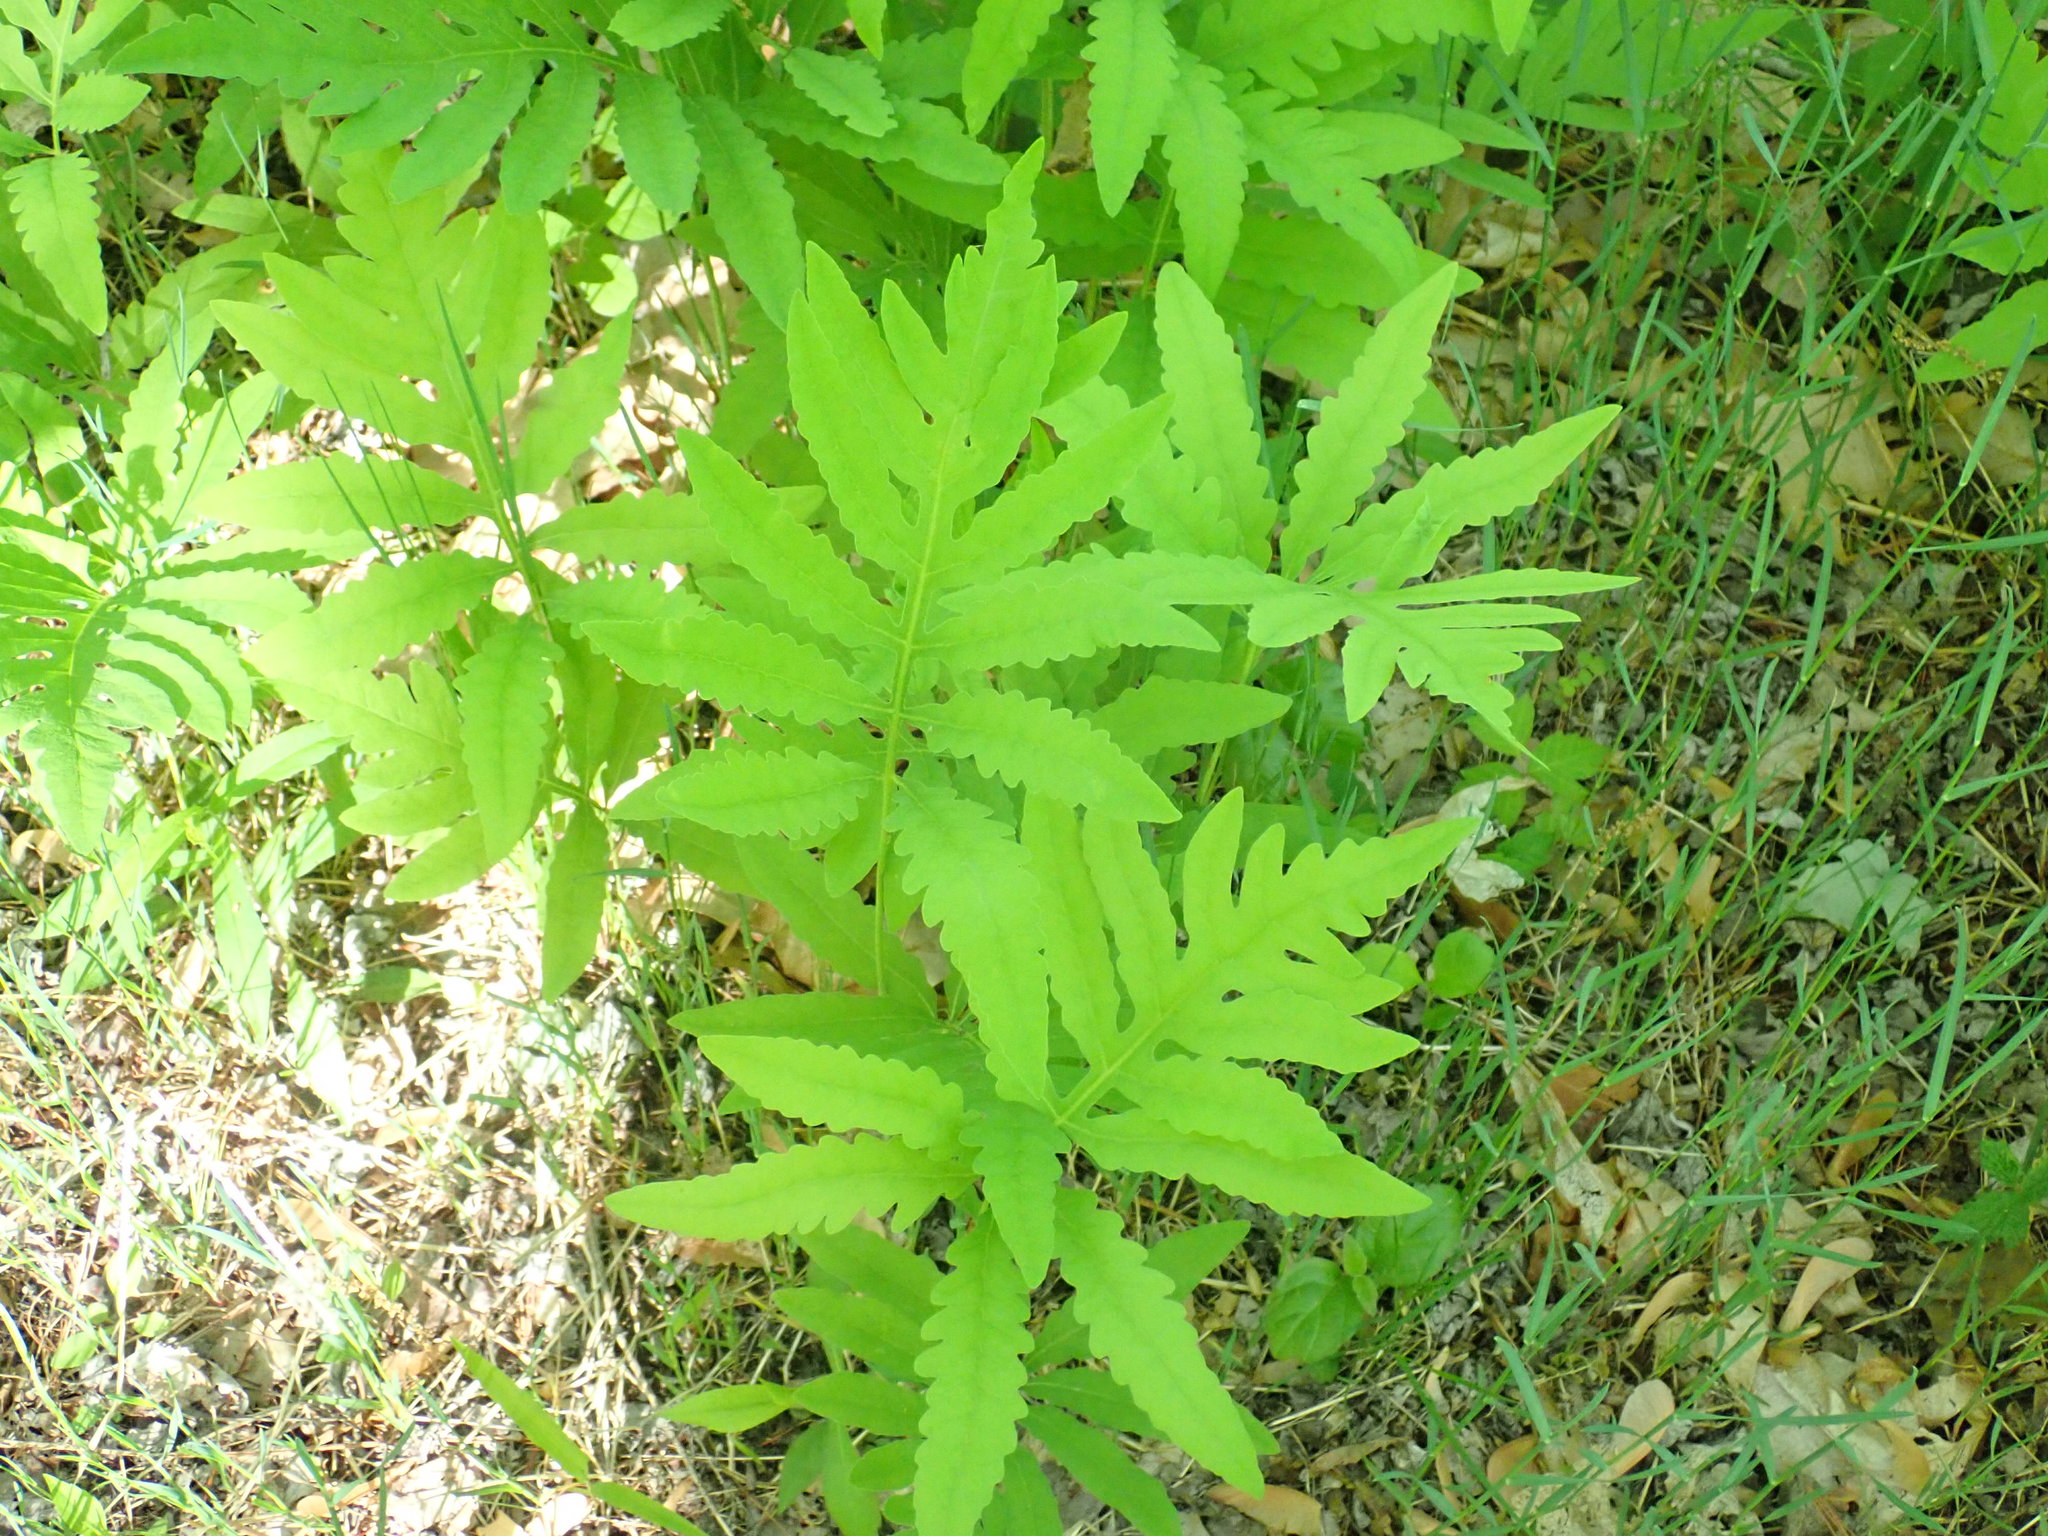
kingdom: Plantae
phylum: Tracheophyta
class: Polypodiopsida
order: Polypodiales
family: Onocleaceae
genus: Onoclea
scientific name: Onoclea sensibilis
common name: Sensitive fern
